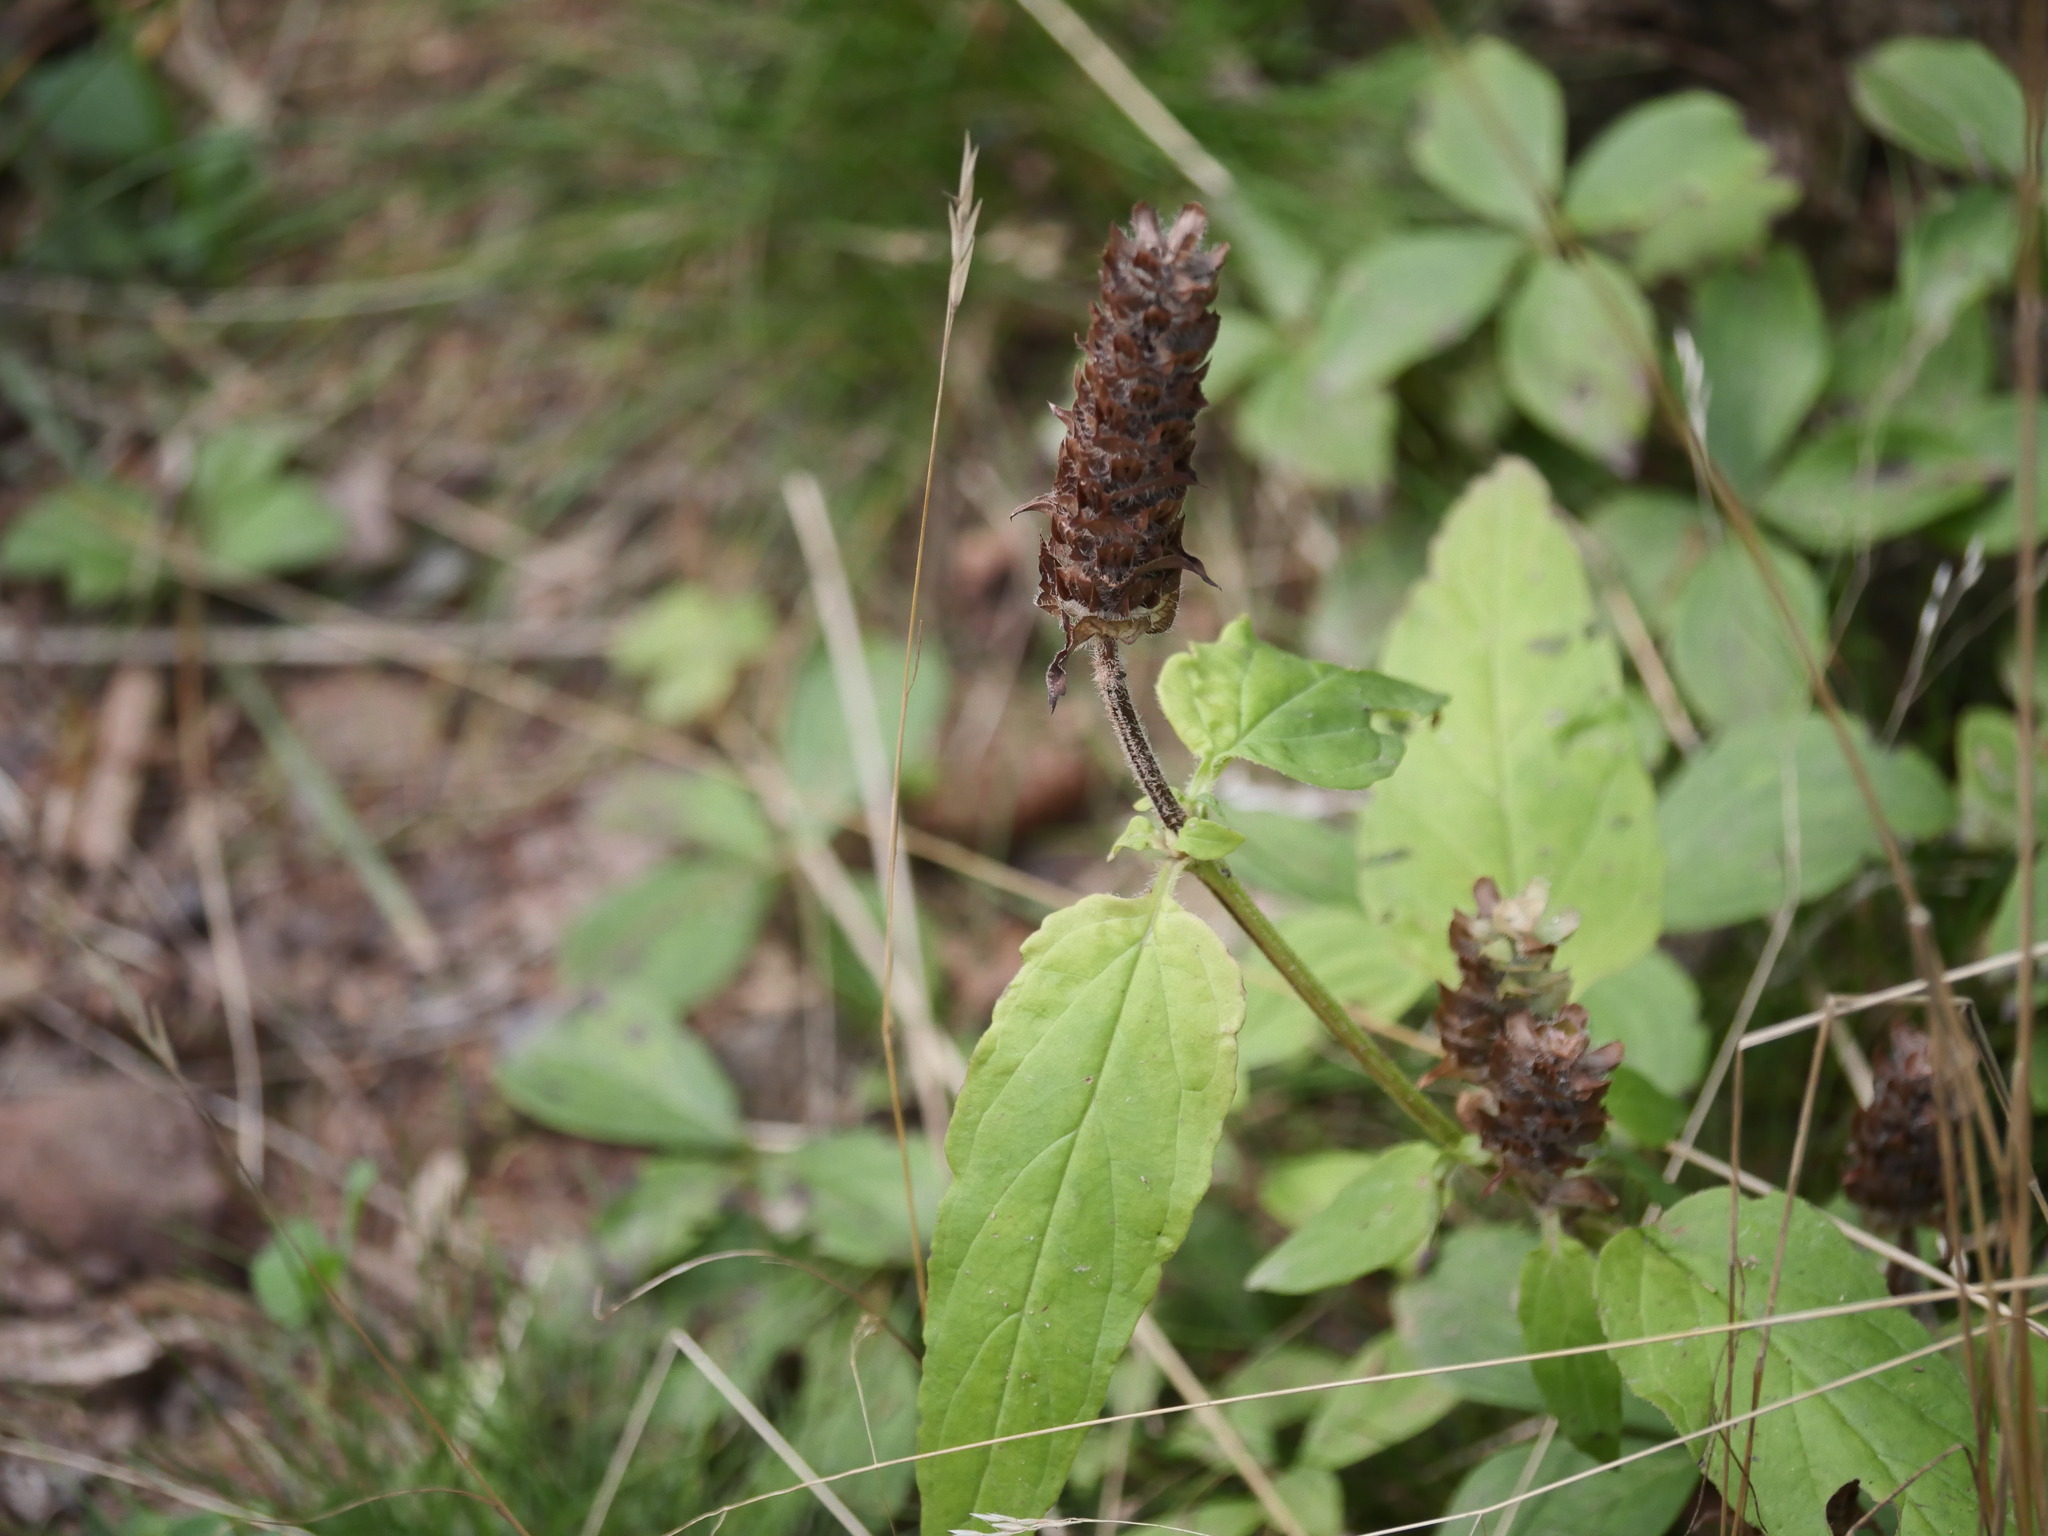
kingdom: Plantae
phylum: Tracheophyta
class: Magnoliopsida
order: Lamiales
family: Lamiaceae
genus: Prunella
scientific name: Prunella vulgaris
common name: Heal-all
